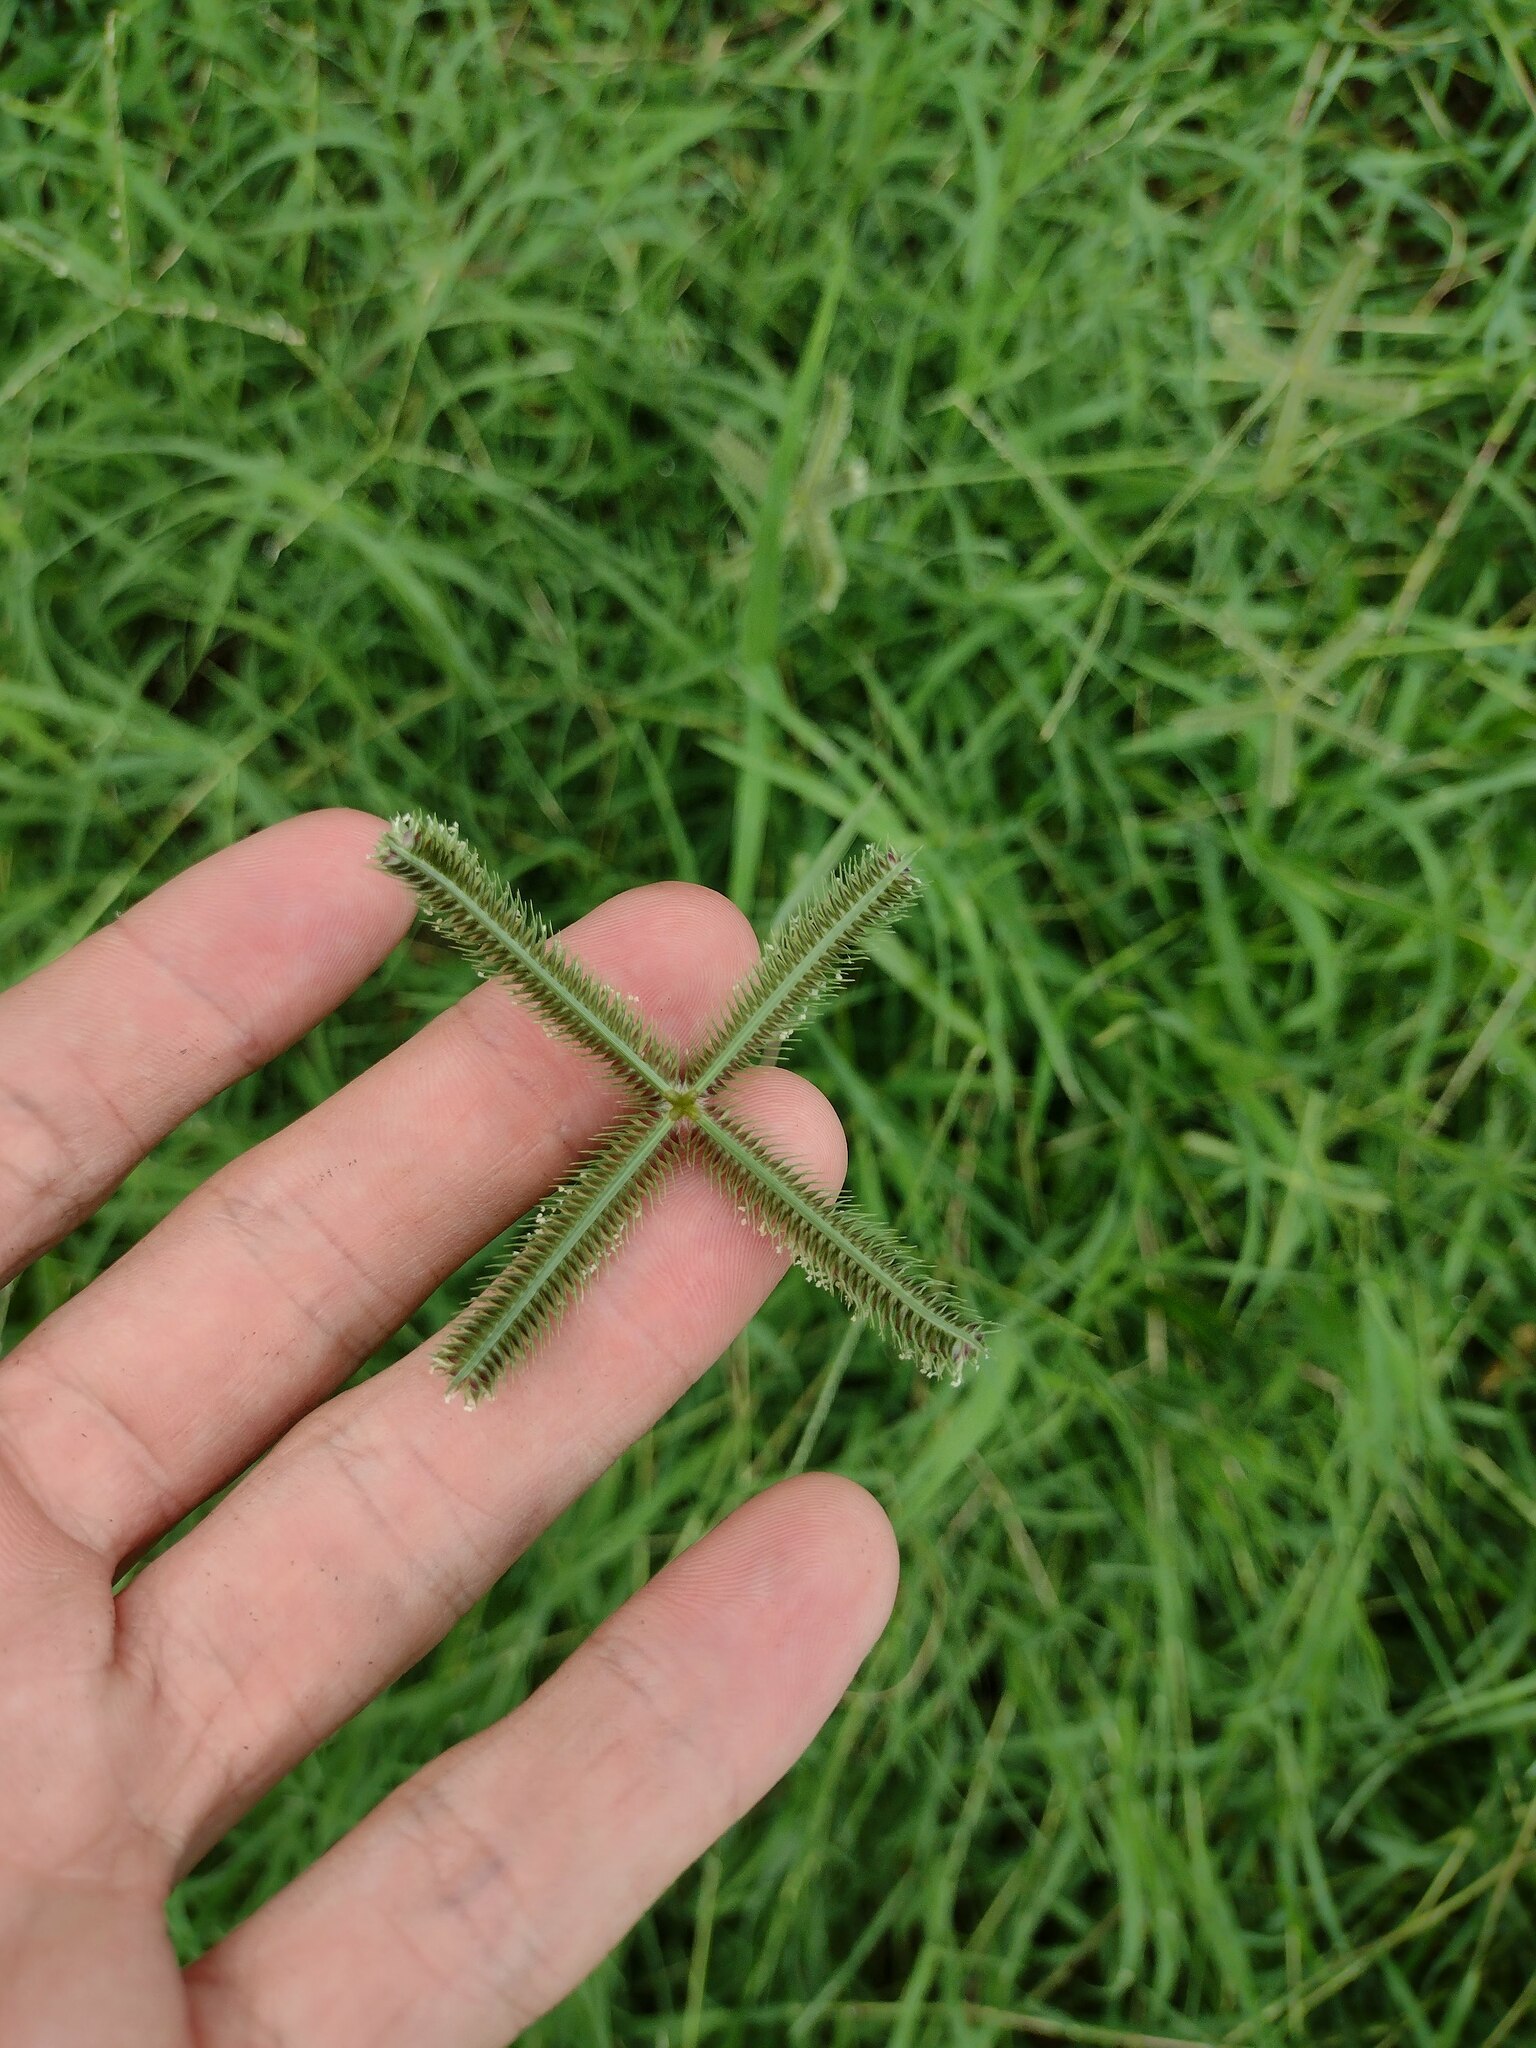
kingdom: Plantae
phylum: Tracheophyta
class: Liliopsida
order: Poales
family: Poaceae
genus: Dactyloctenium
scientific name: Dactyloctenium aegyptium
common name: Egyptian grass
